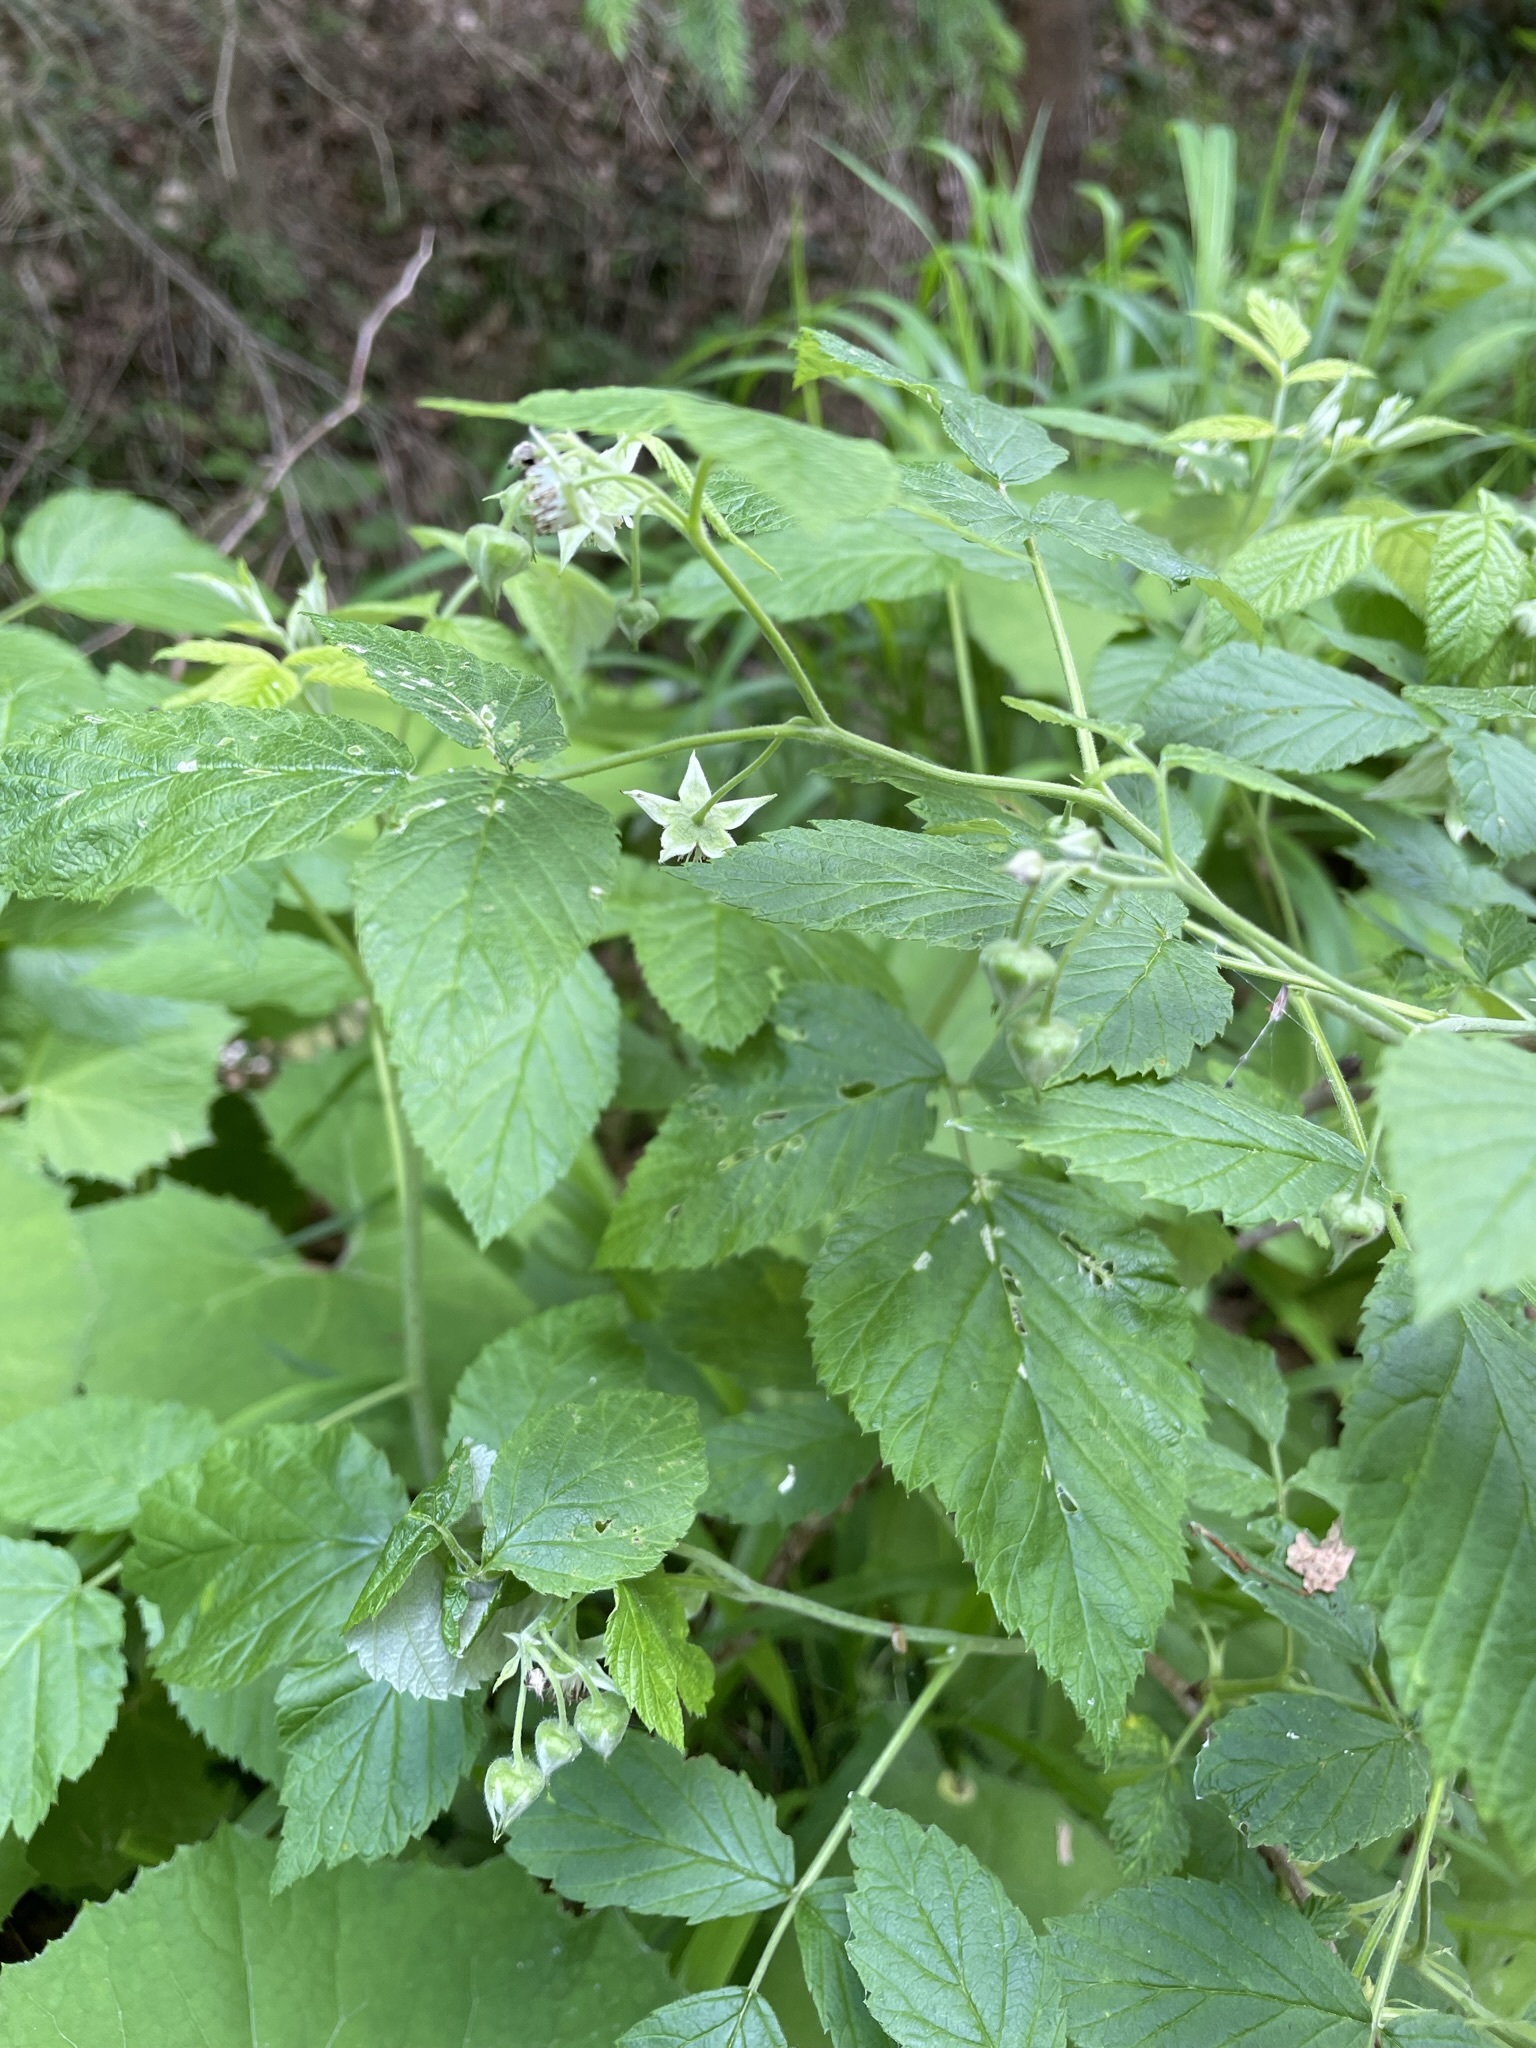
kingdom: Plantae
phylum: Tracheophyta
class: Magnoliopsida
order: Rosales
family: Rosaceae
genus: Rubus
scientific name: Rubus idaeus
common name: Raspberry
